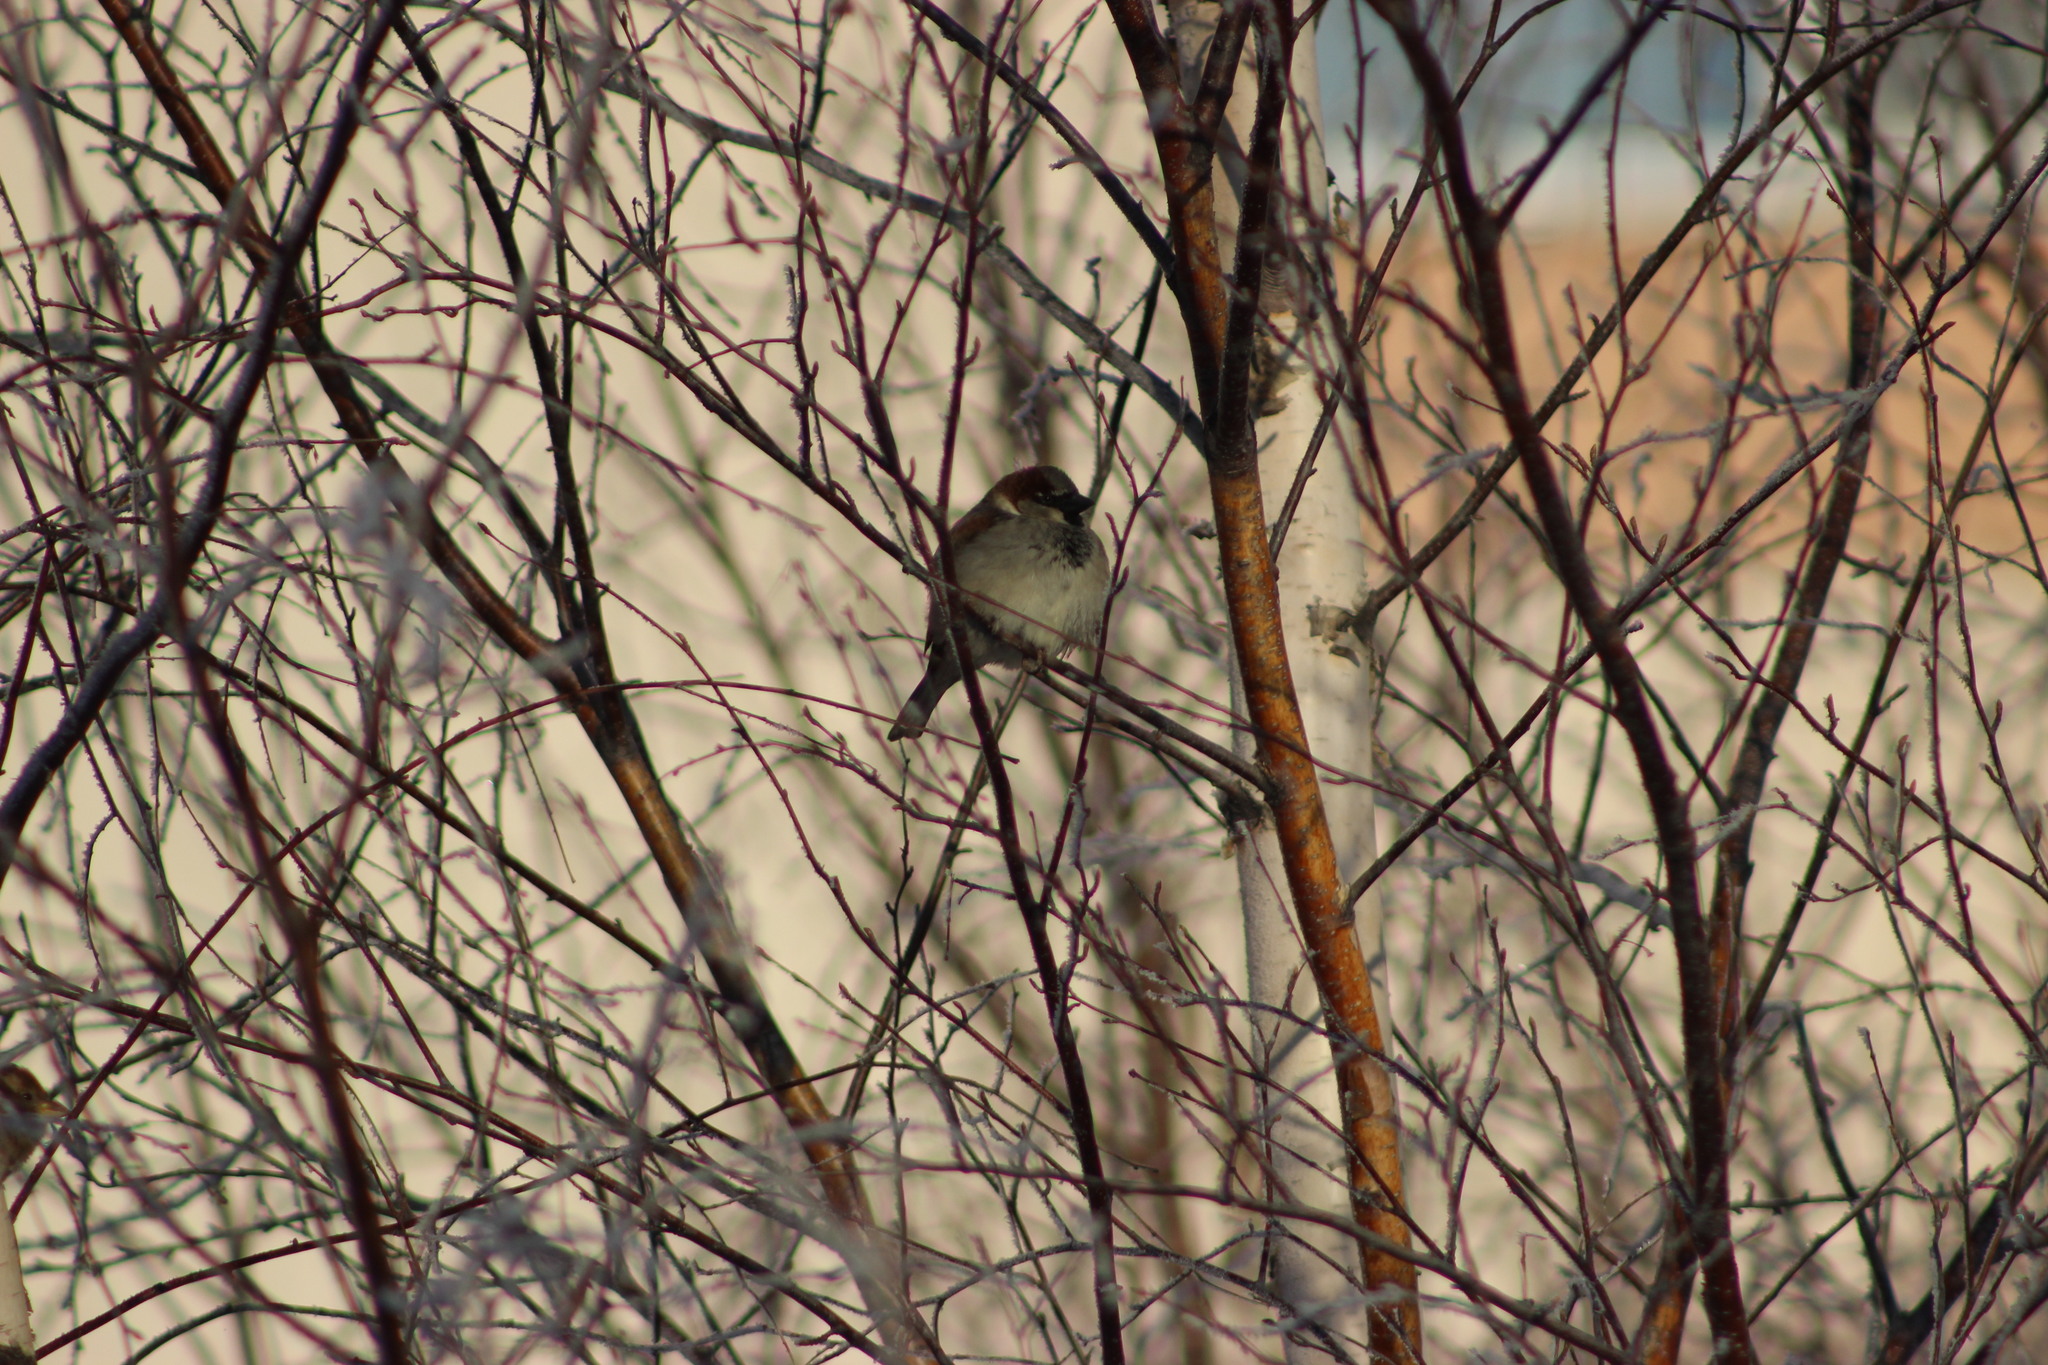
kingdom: Animalia
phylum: Chordata
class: Aves
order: Passeriformes
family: Passeridae
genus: Passer
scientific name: Passer domesticus
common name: House sparrow
